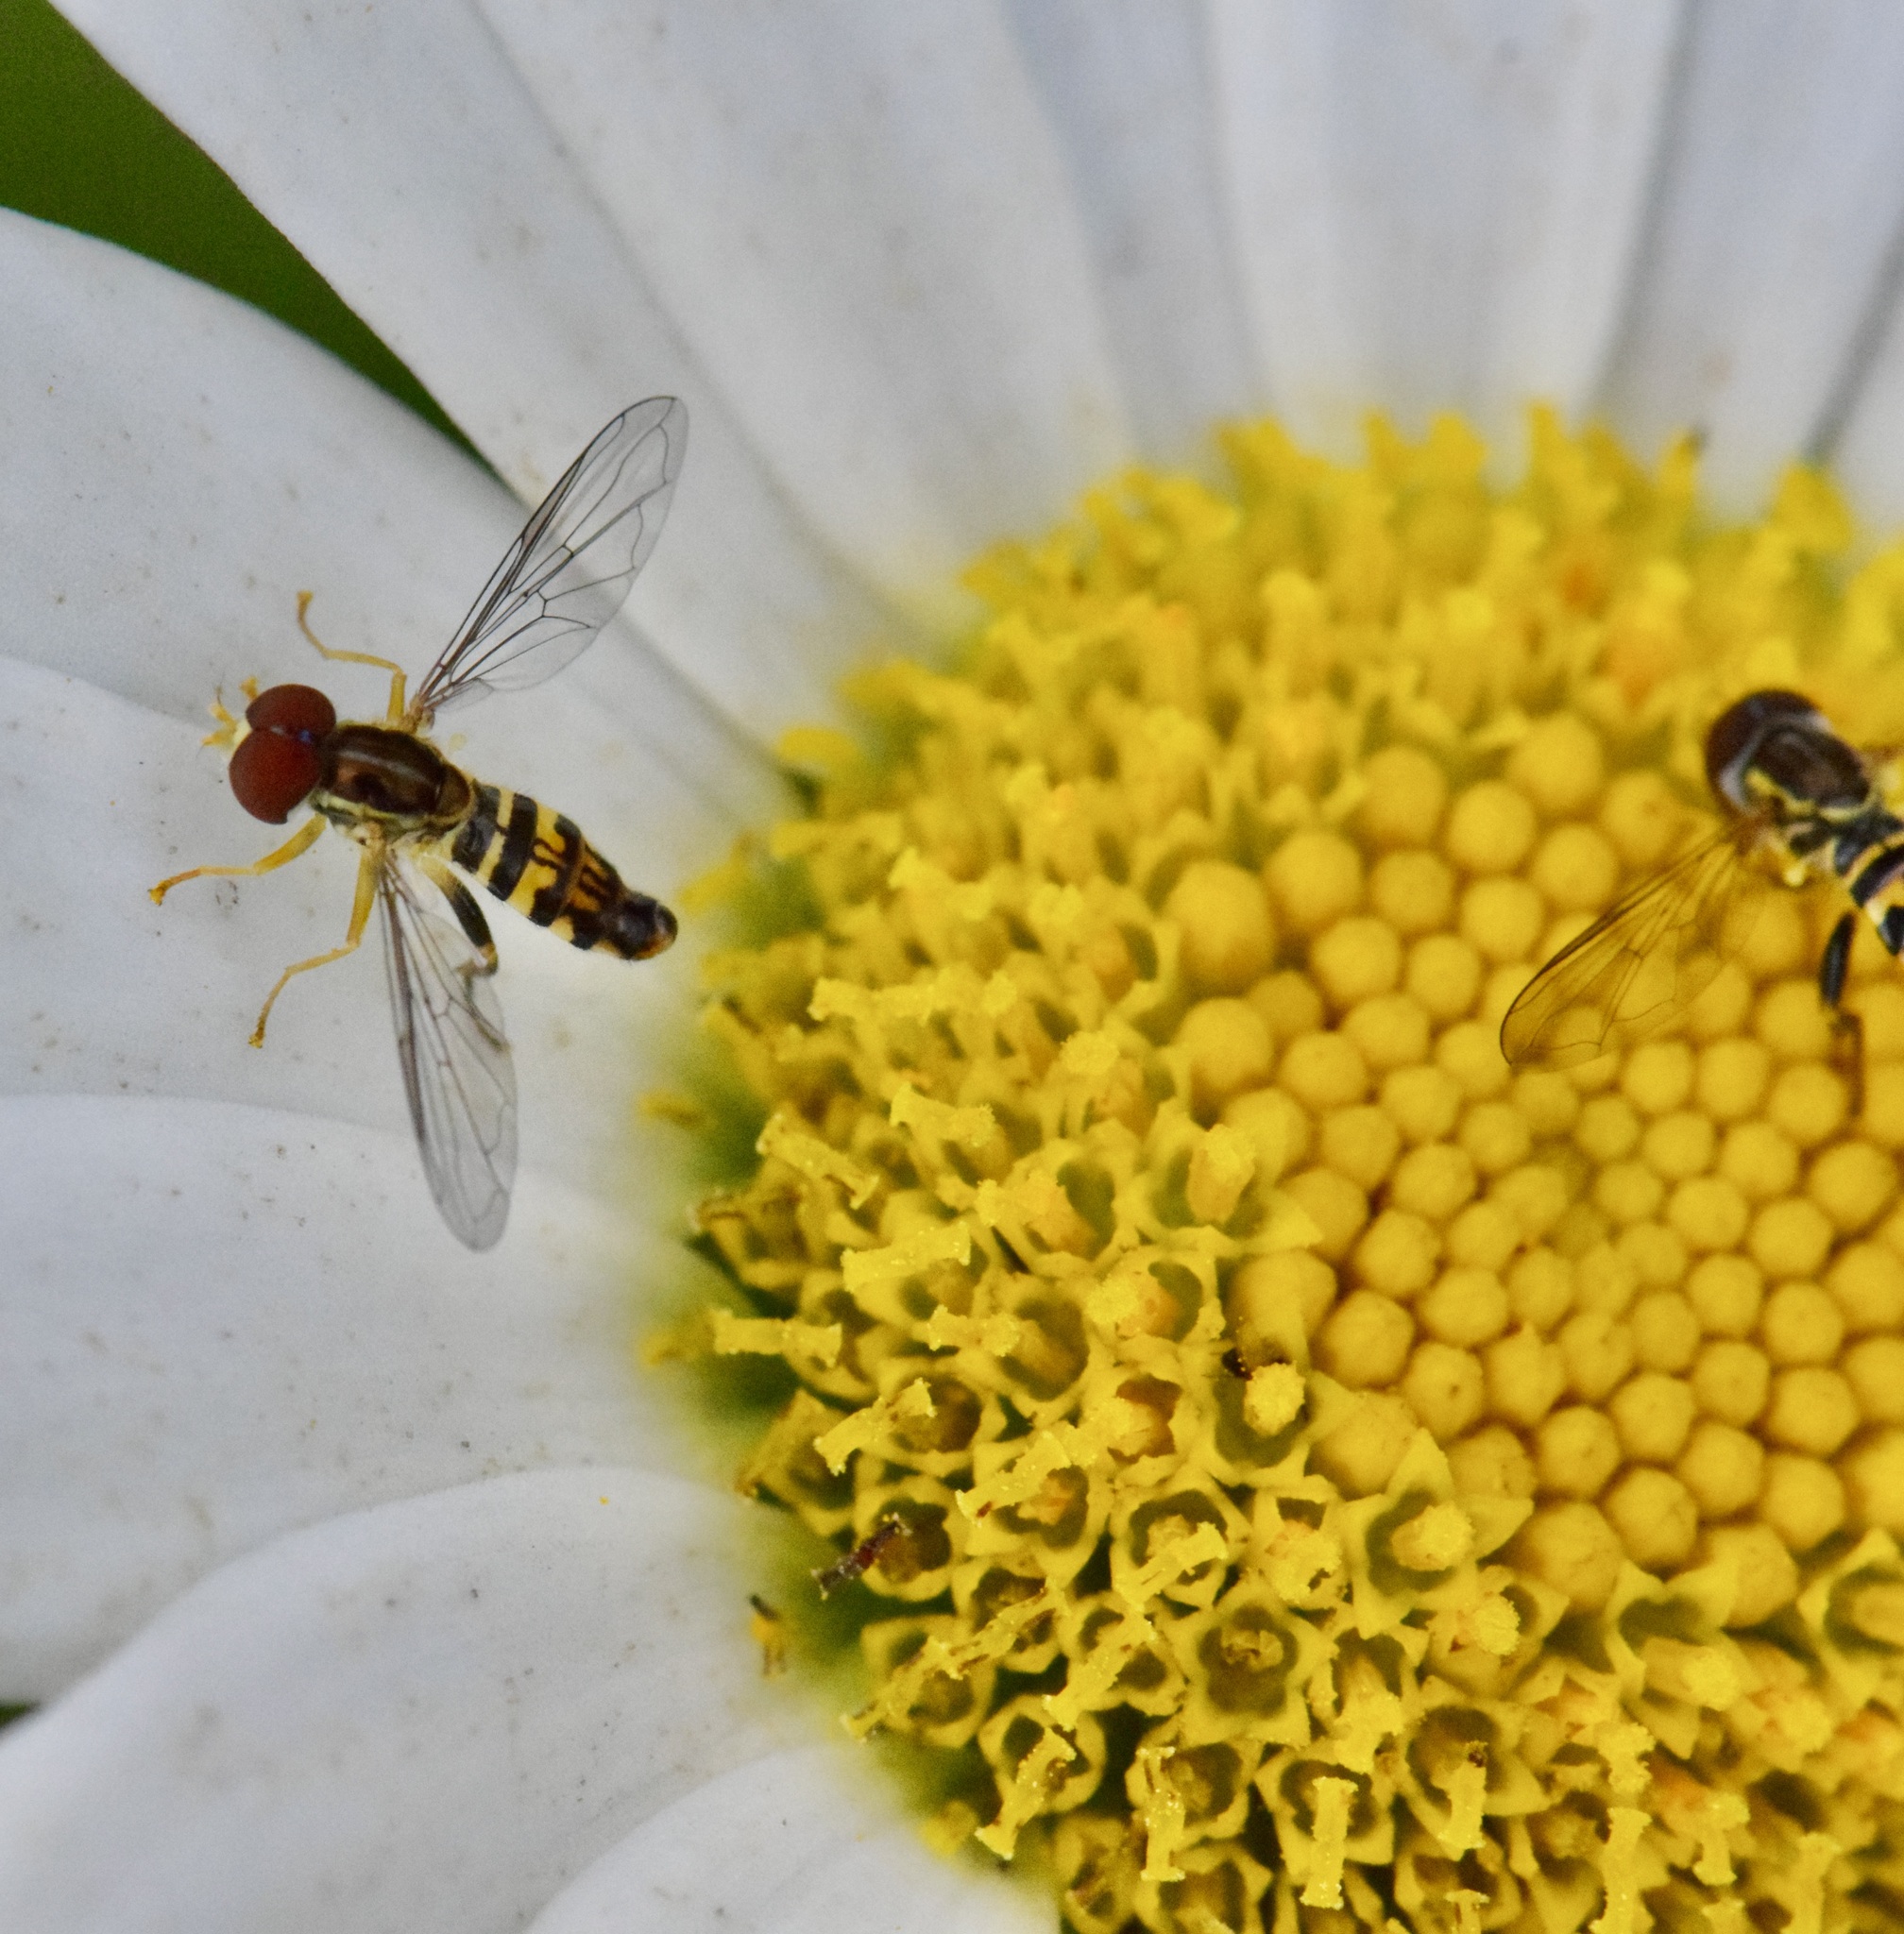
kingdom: Animalia
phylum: Arthropoda
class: Insecta
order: Diptera
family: Syrphidae
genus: Toxomerus
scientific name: Toxomerus geminatus
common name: Eastern calligrapher
